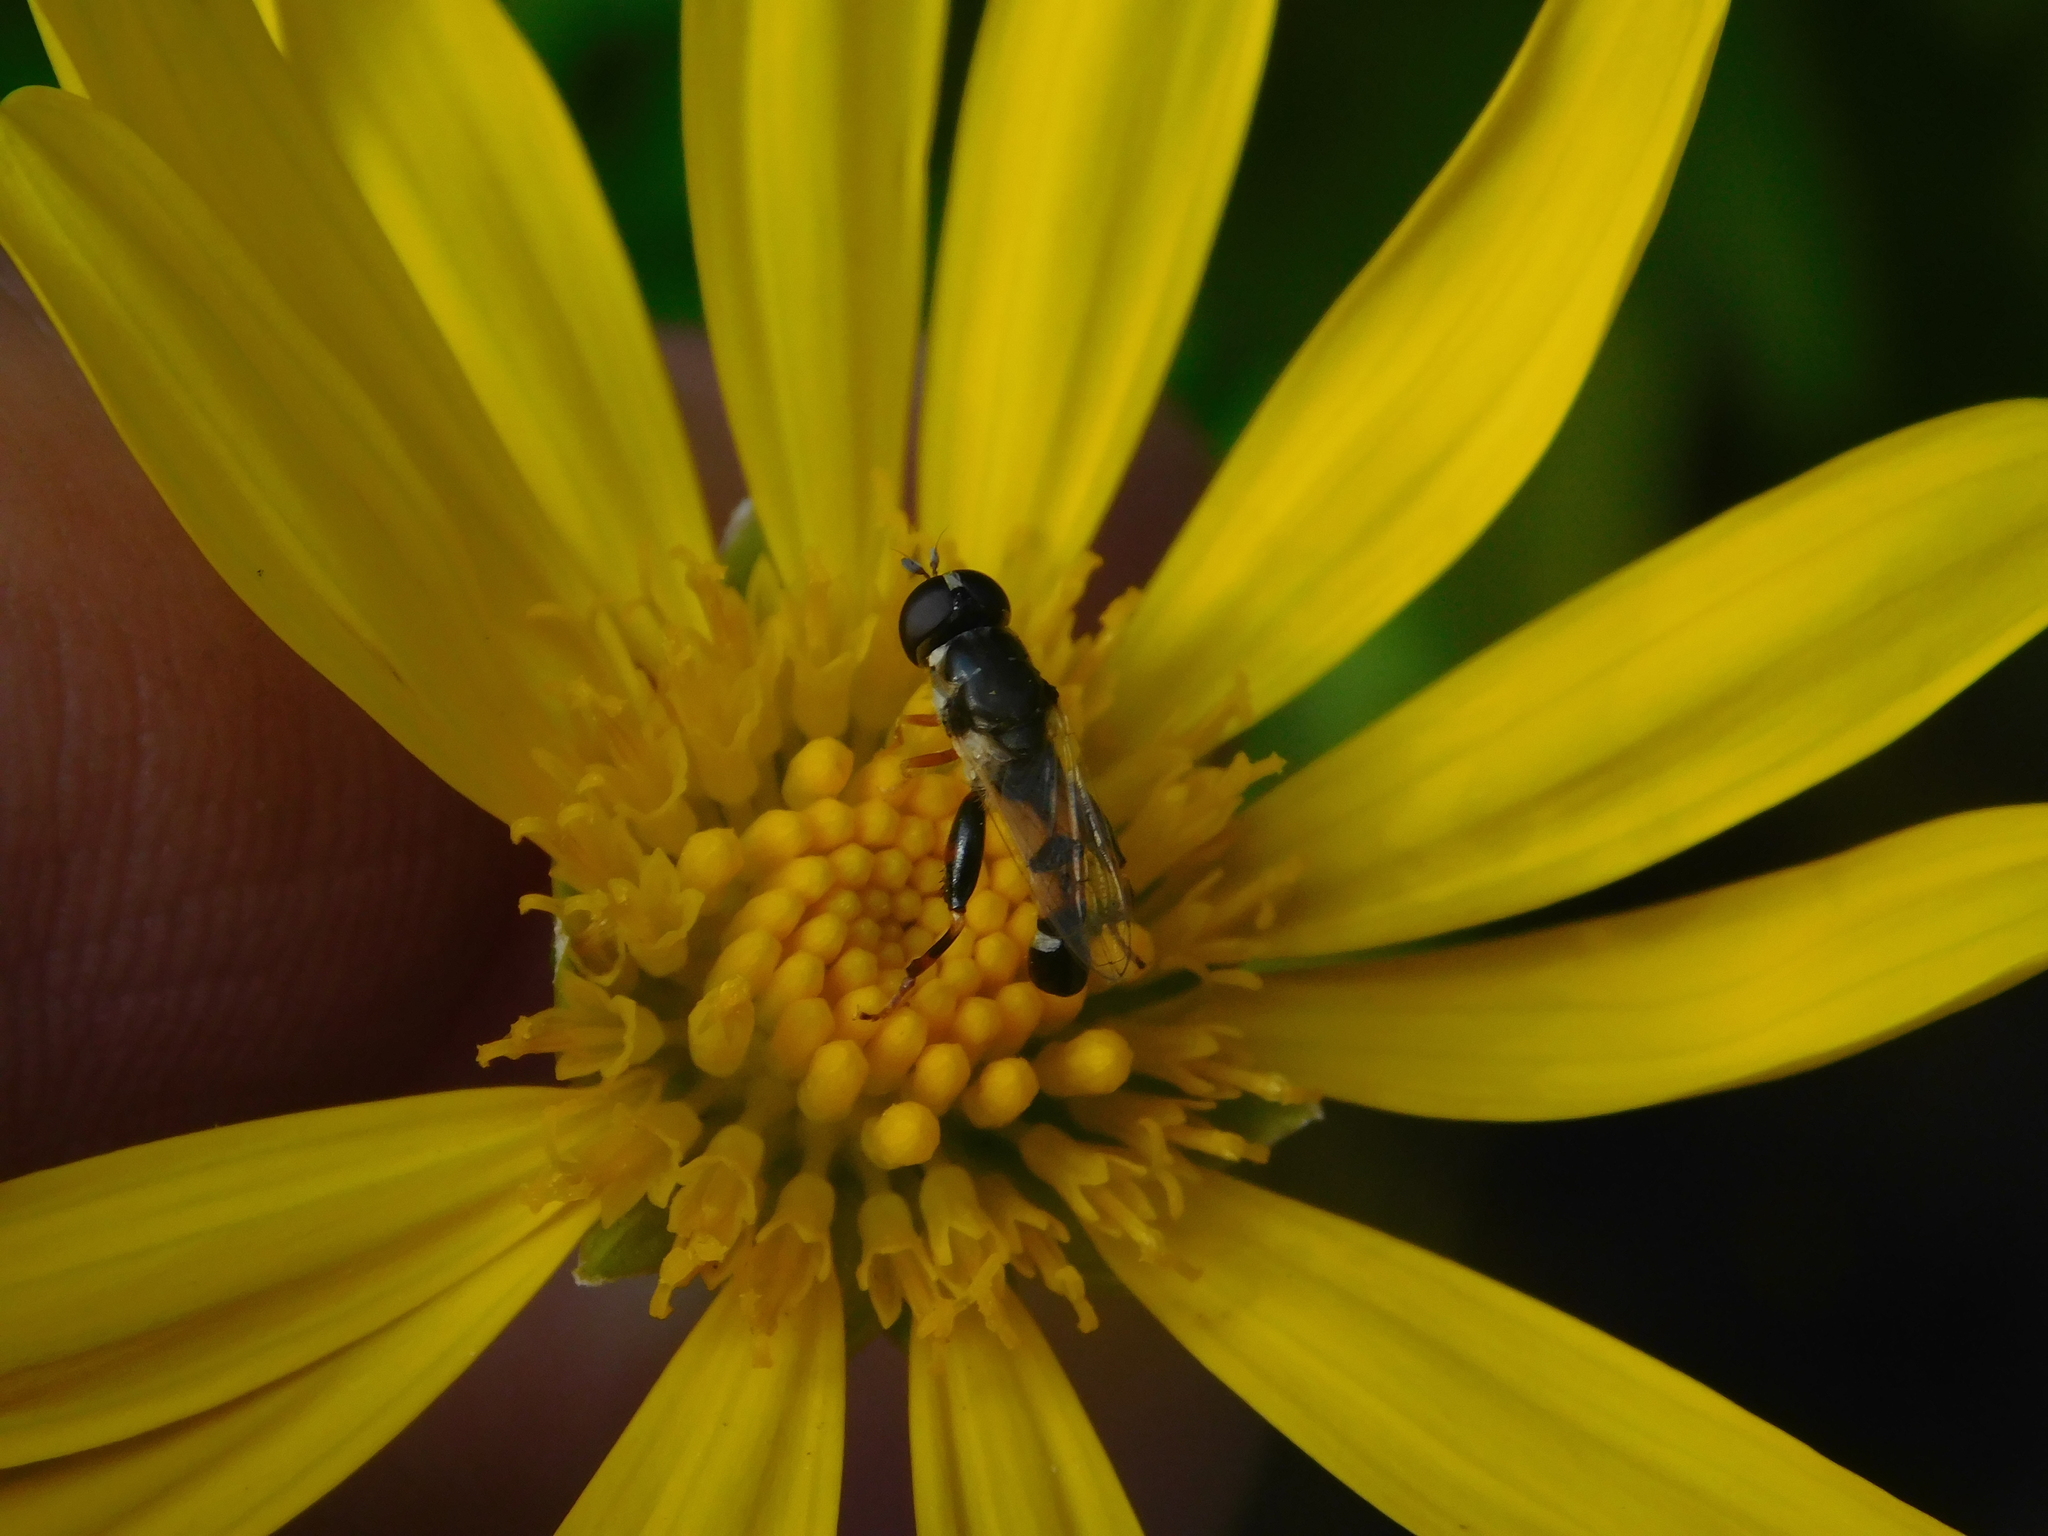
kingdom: Animalia
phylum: Arthropoda
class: Insecta
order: Diptera
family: Syrphidae
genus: Syritta
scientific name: Syritta flaviventris
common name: Syrphid fly
